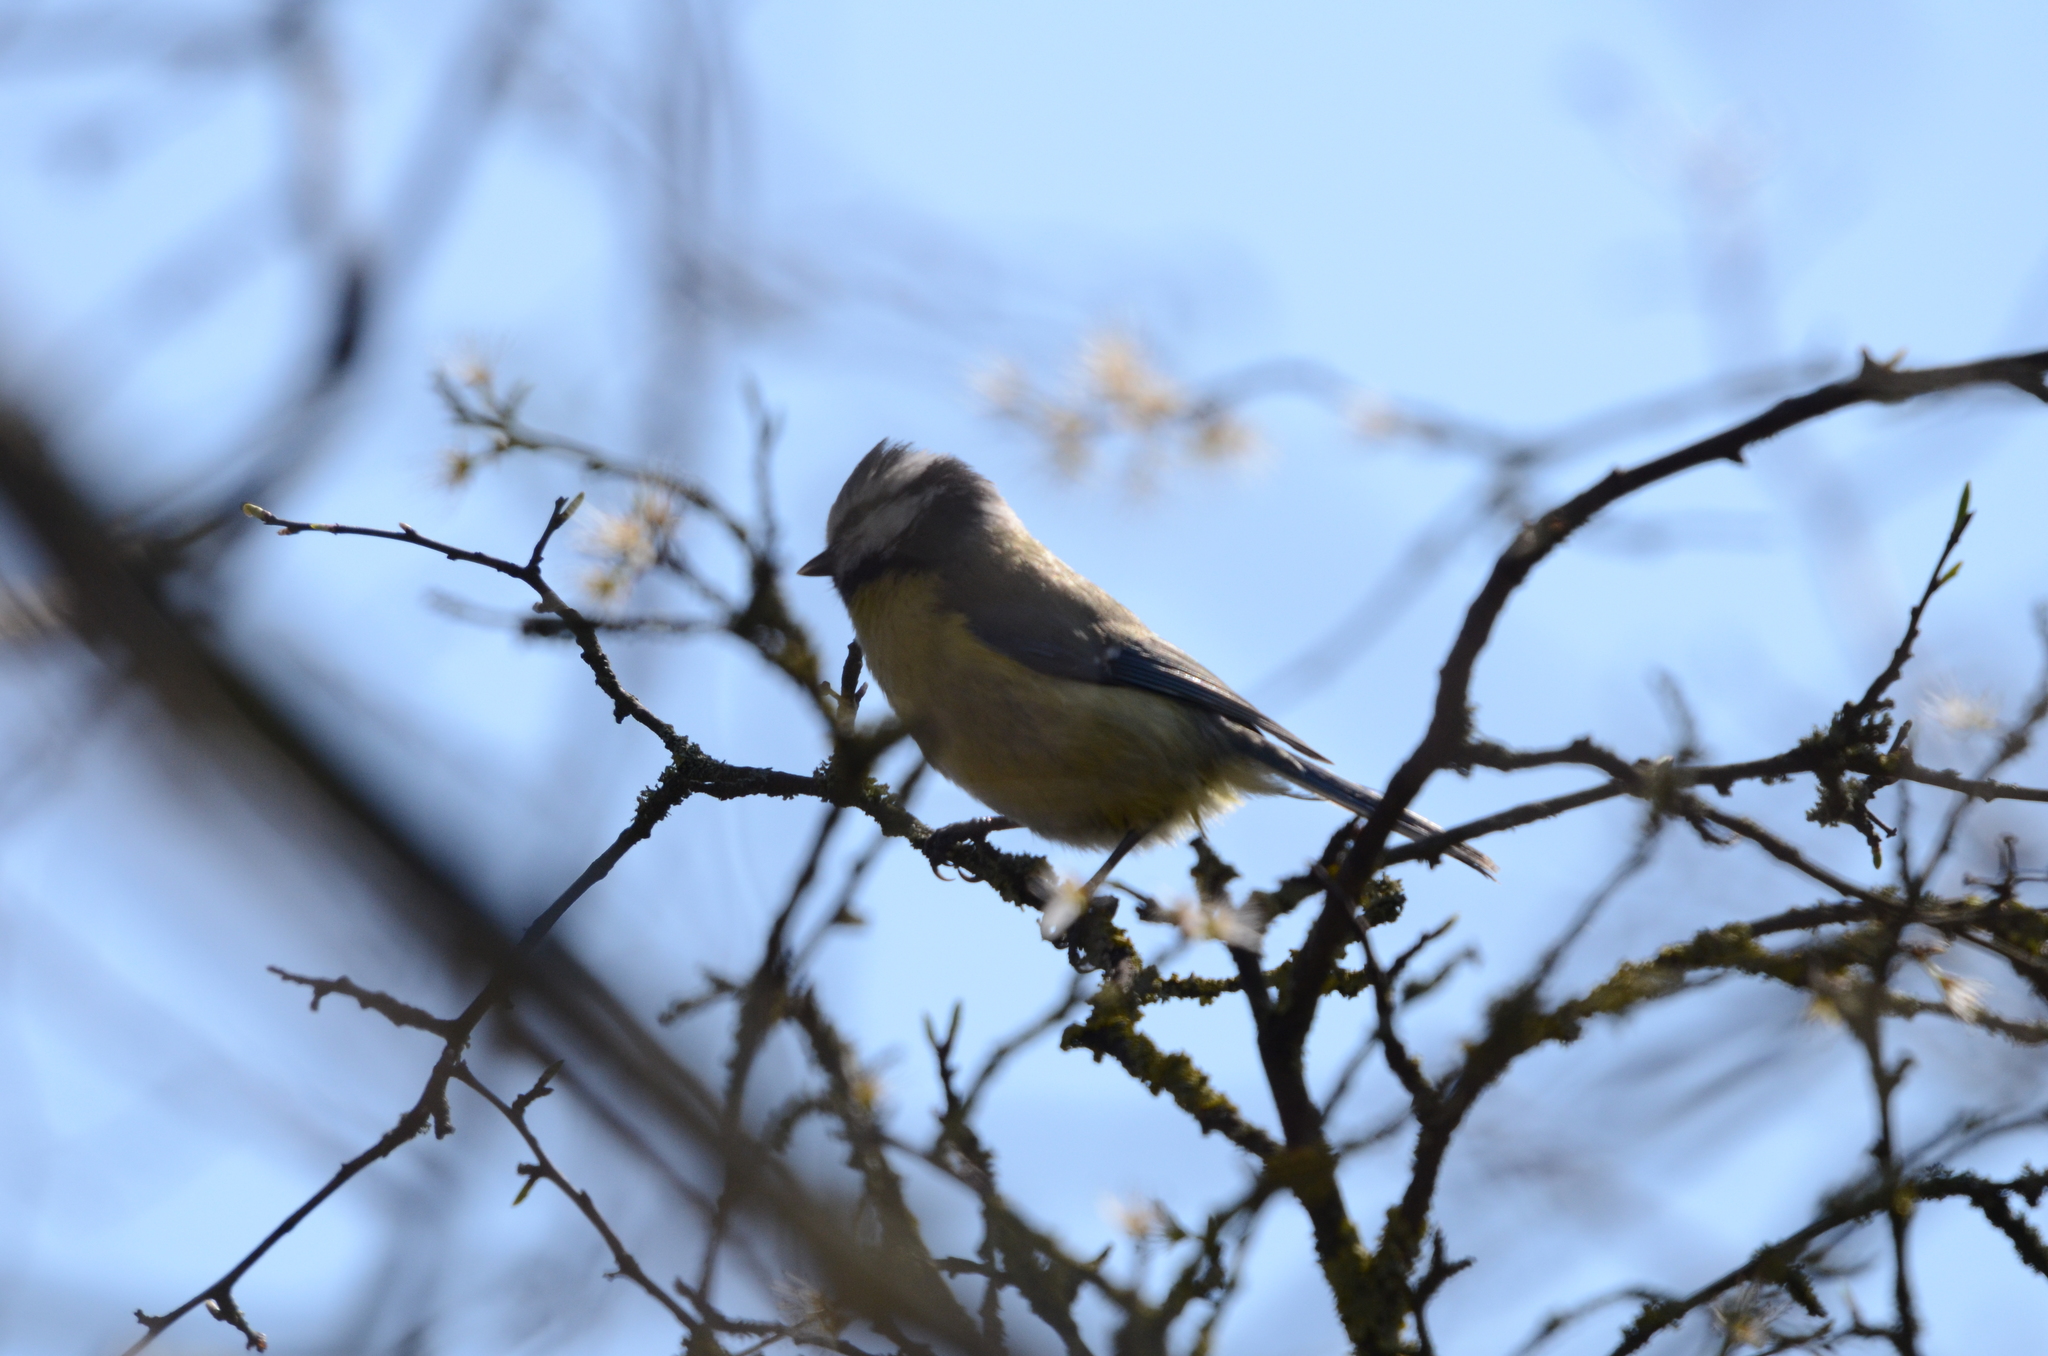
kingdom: Animalia
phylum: Chordata
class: Aves
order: Passeriformes
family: Paridae
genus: Cyanistes
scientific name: Cyanistes caeruleus
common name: Eurasian blue tit
